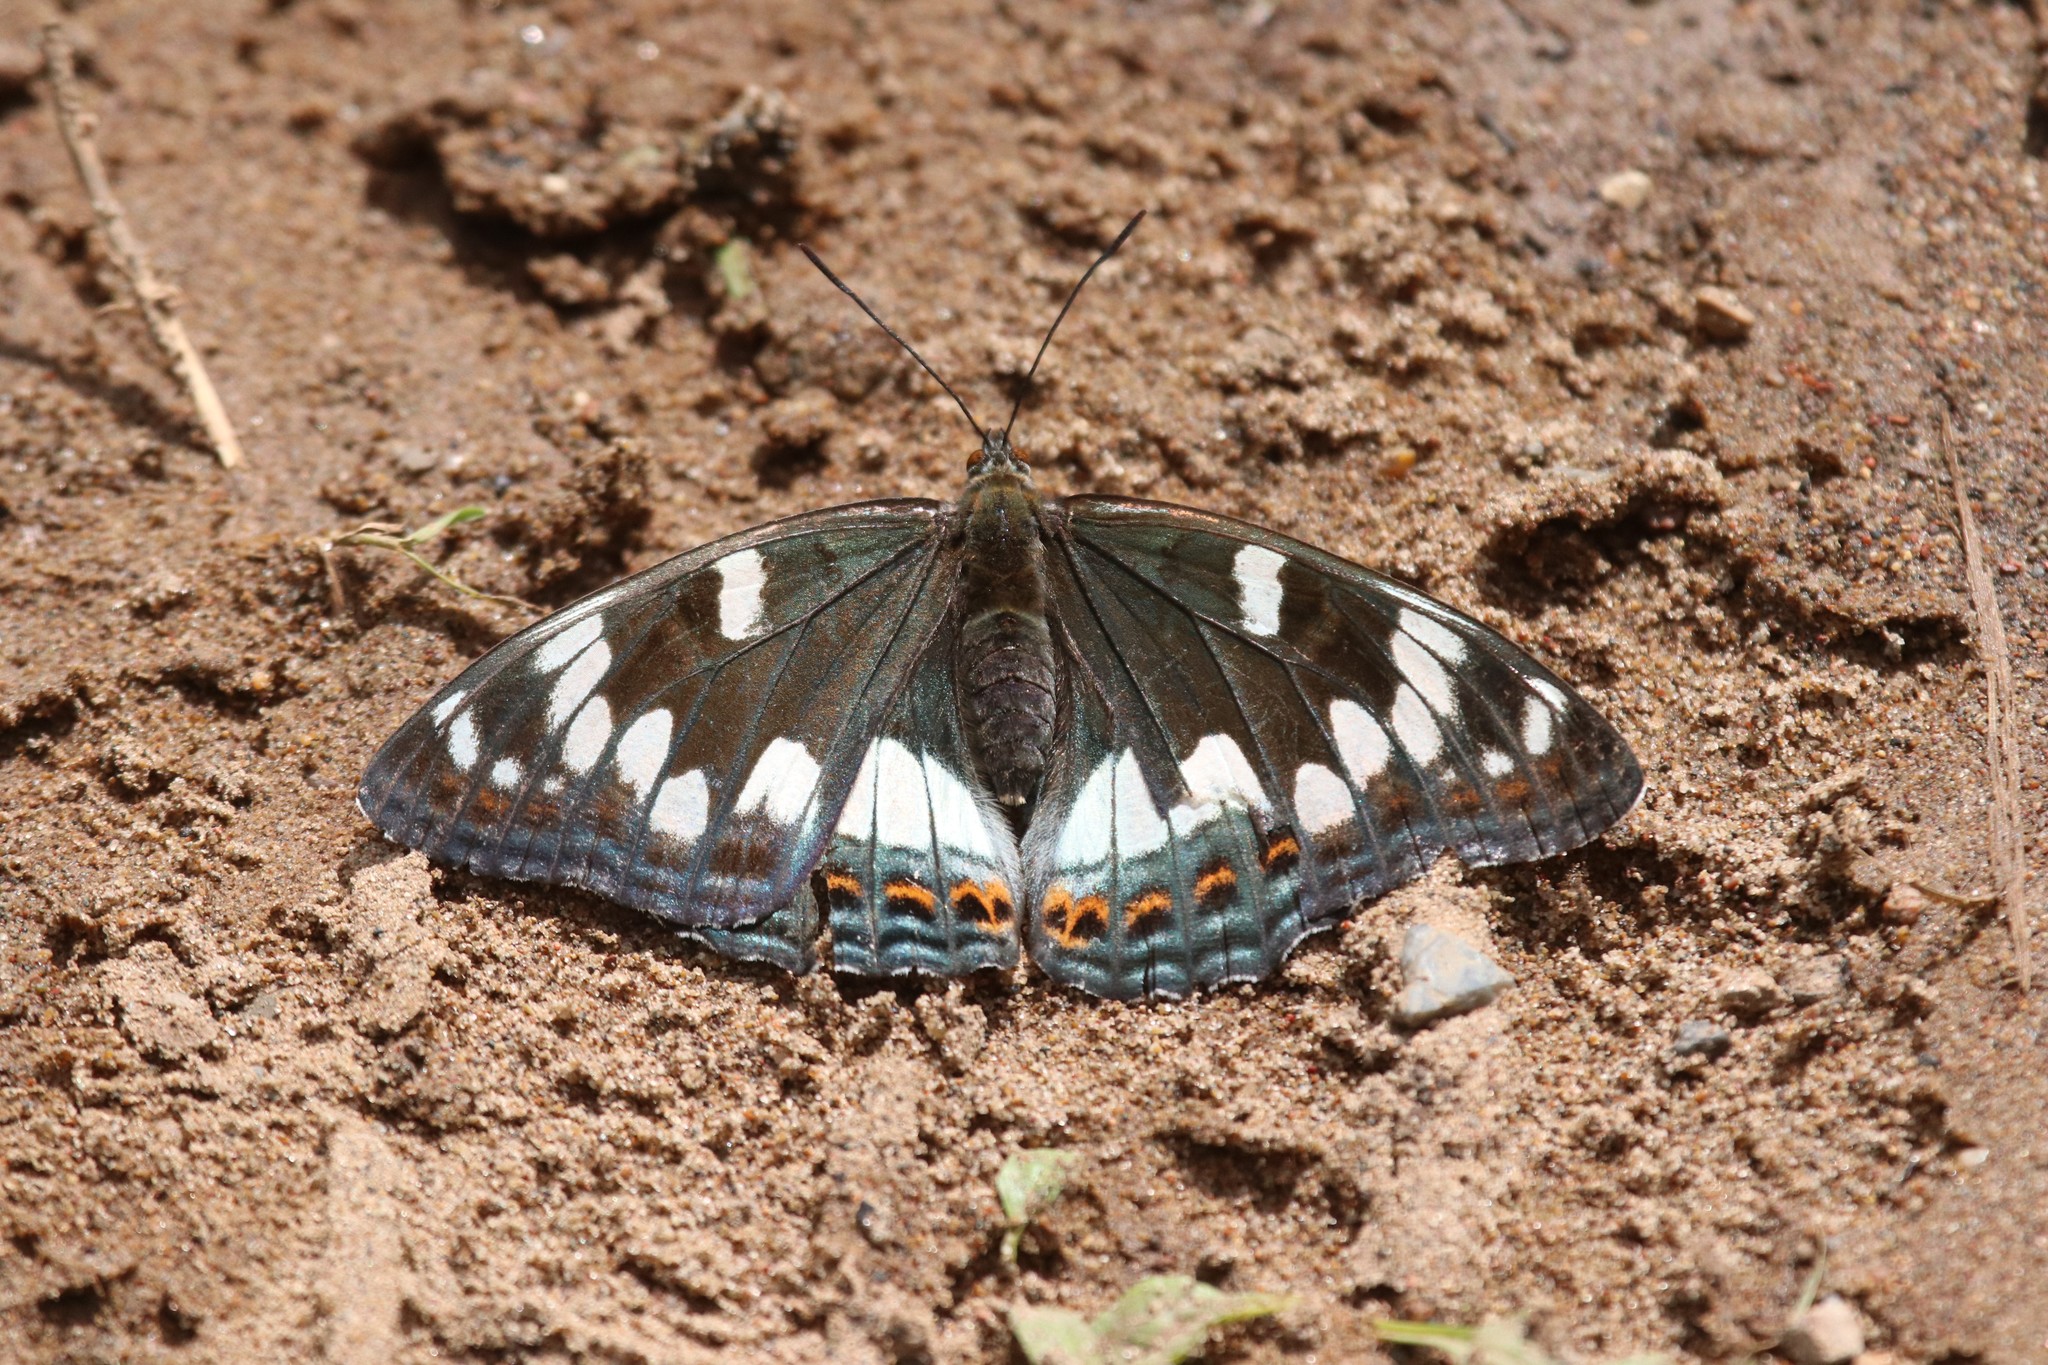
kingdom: Animalia
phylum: Arthropoda
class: Insecta
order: Lepidoptera
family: Nymphalidae
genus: Limenitis
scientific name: Limenitis populi
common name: Poplar admiral
